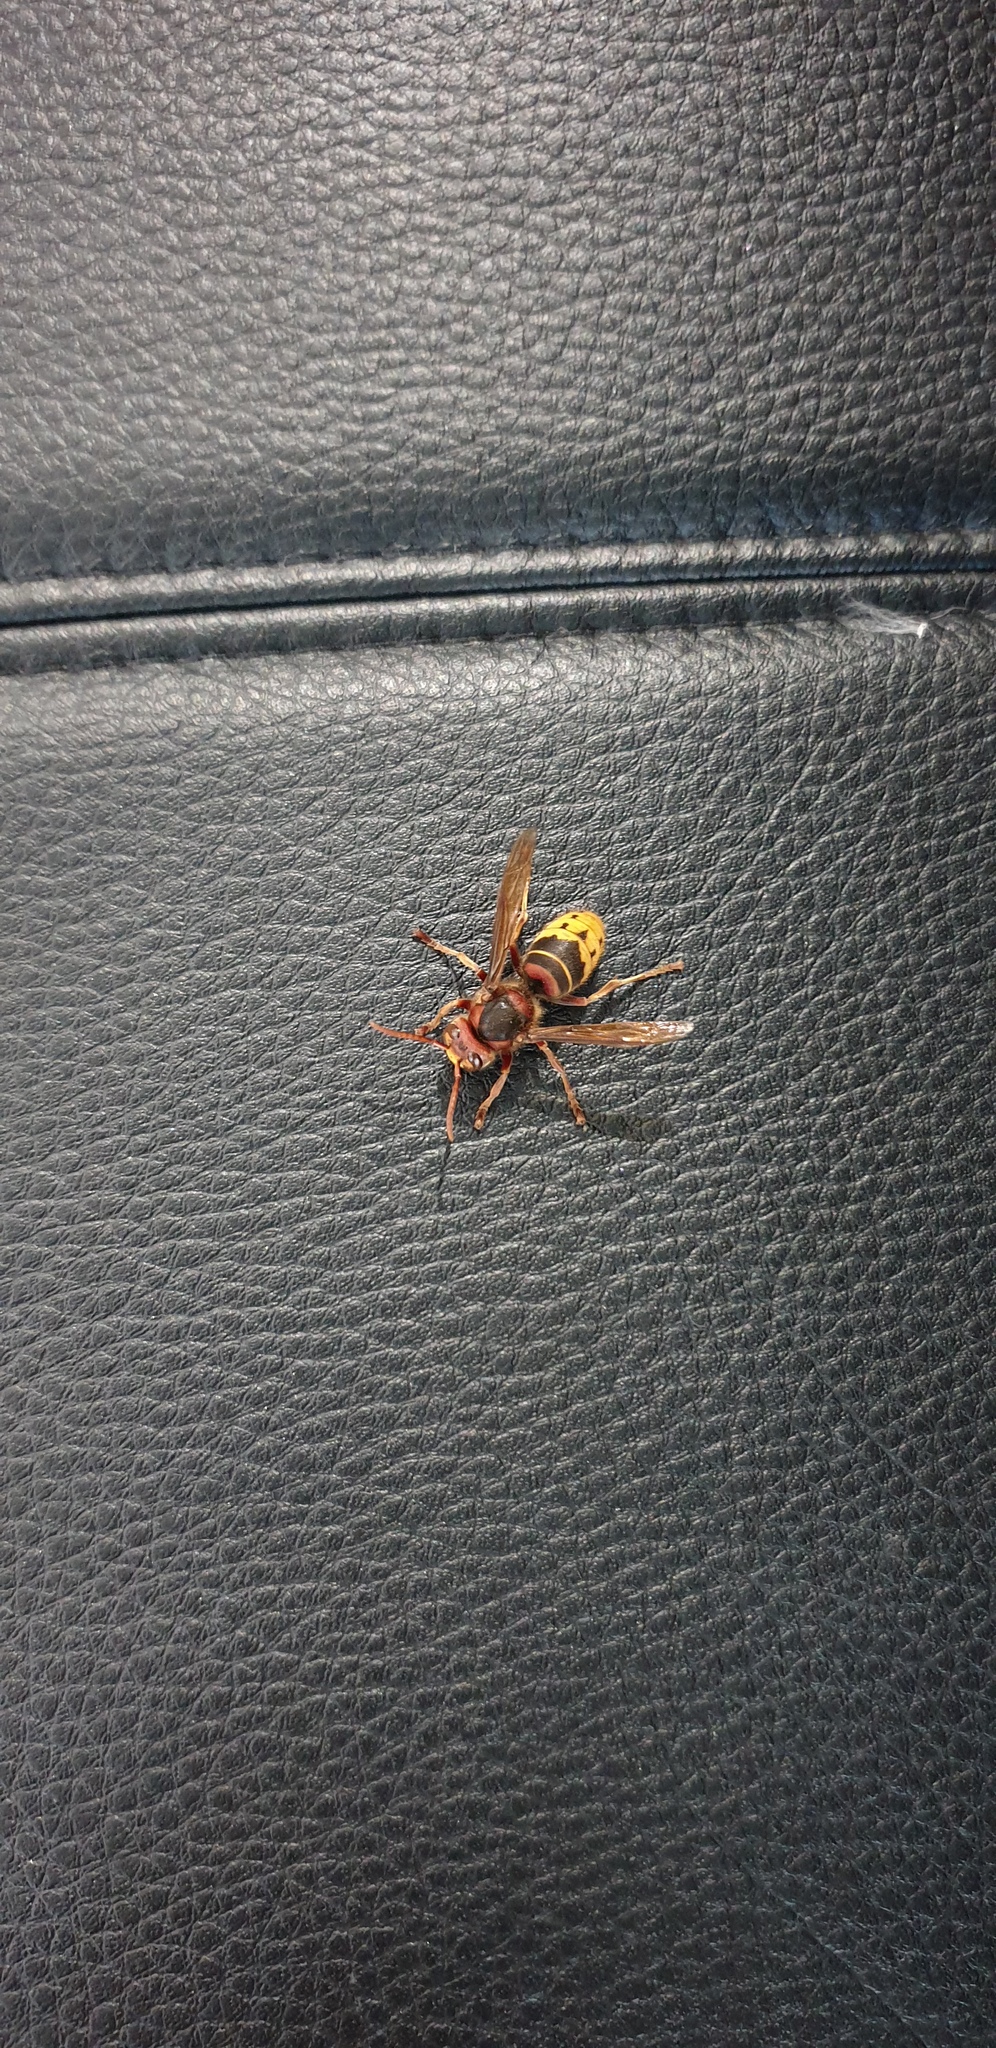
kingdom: Animalia
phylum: Arthropoda
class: Insecta
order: Hymenoptera
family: Vespidae
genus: Vespa
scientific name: Vespa crabro
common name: Hornet
